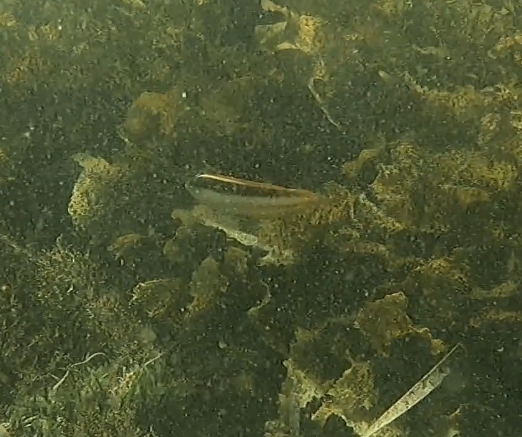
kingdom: Animalia
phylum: Chordata
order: Perciformes
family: Labridae
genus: Ophthalmolepis
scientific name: Ophthalmolepis lineolata
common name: Maori wrasse
